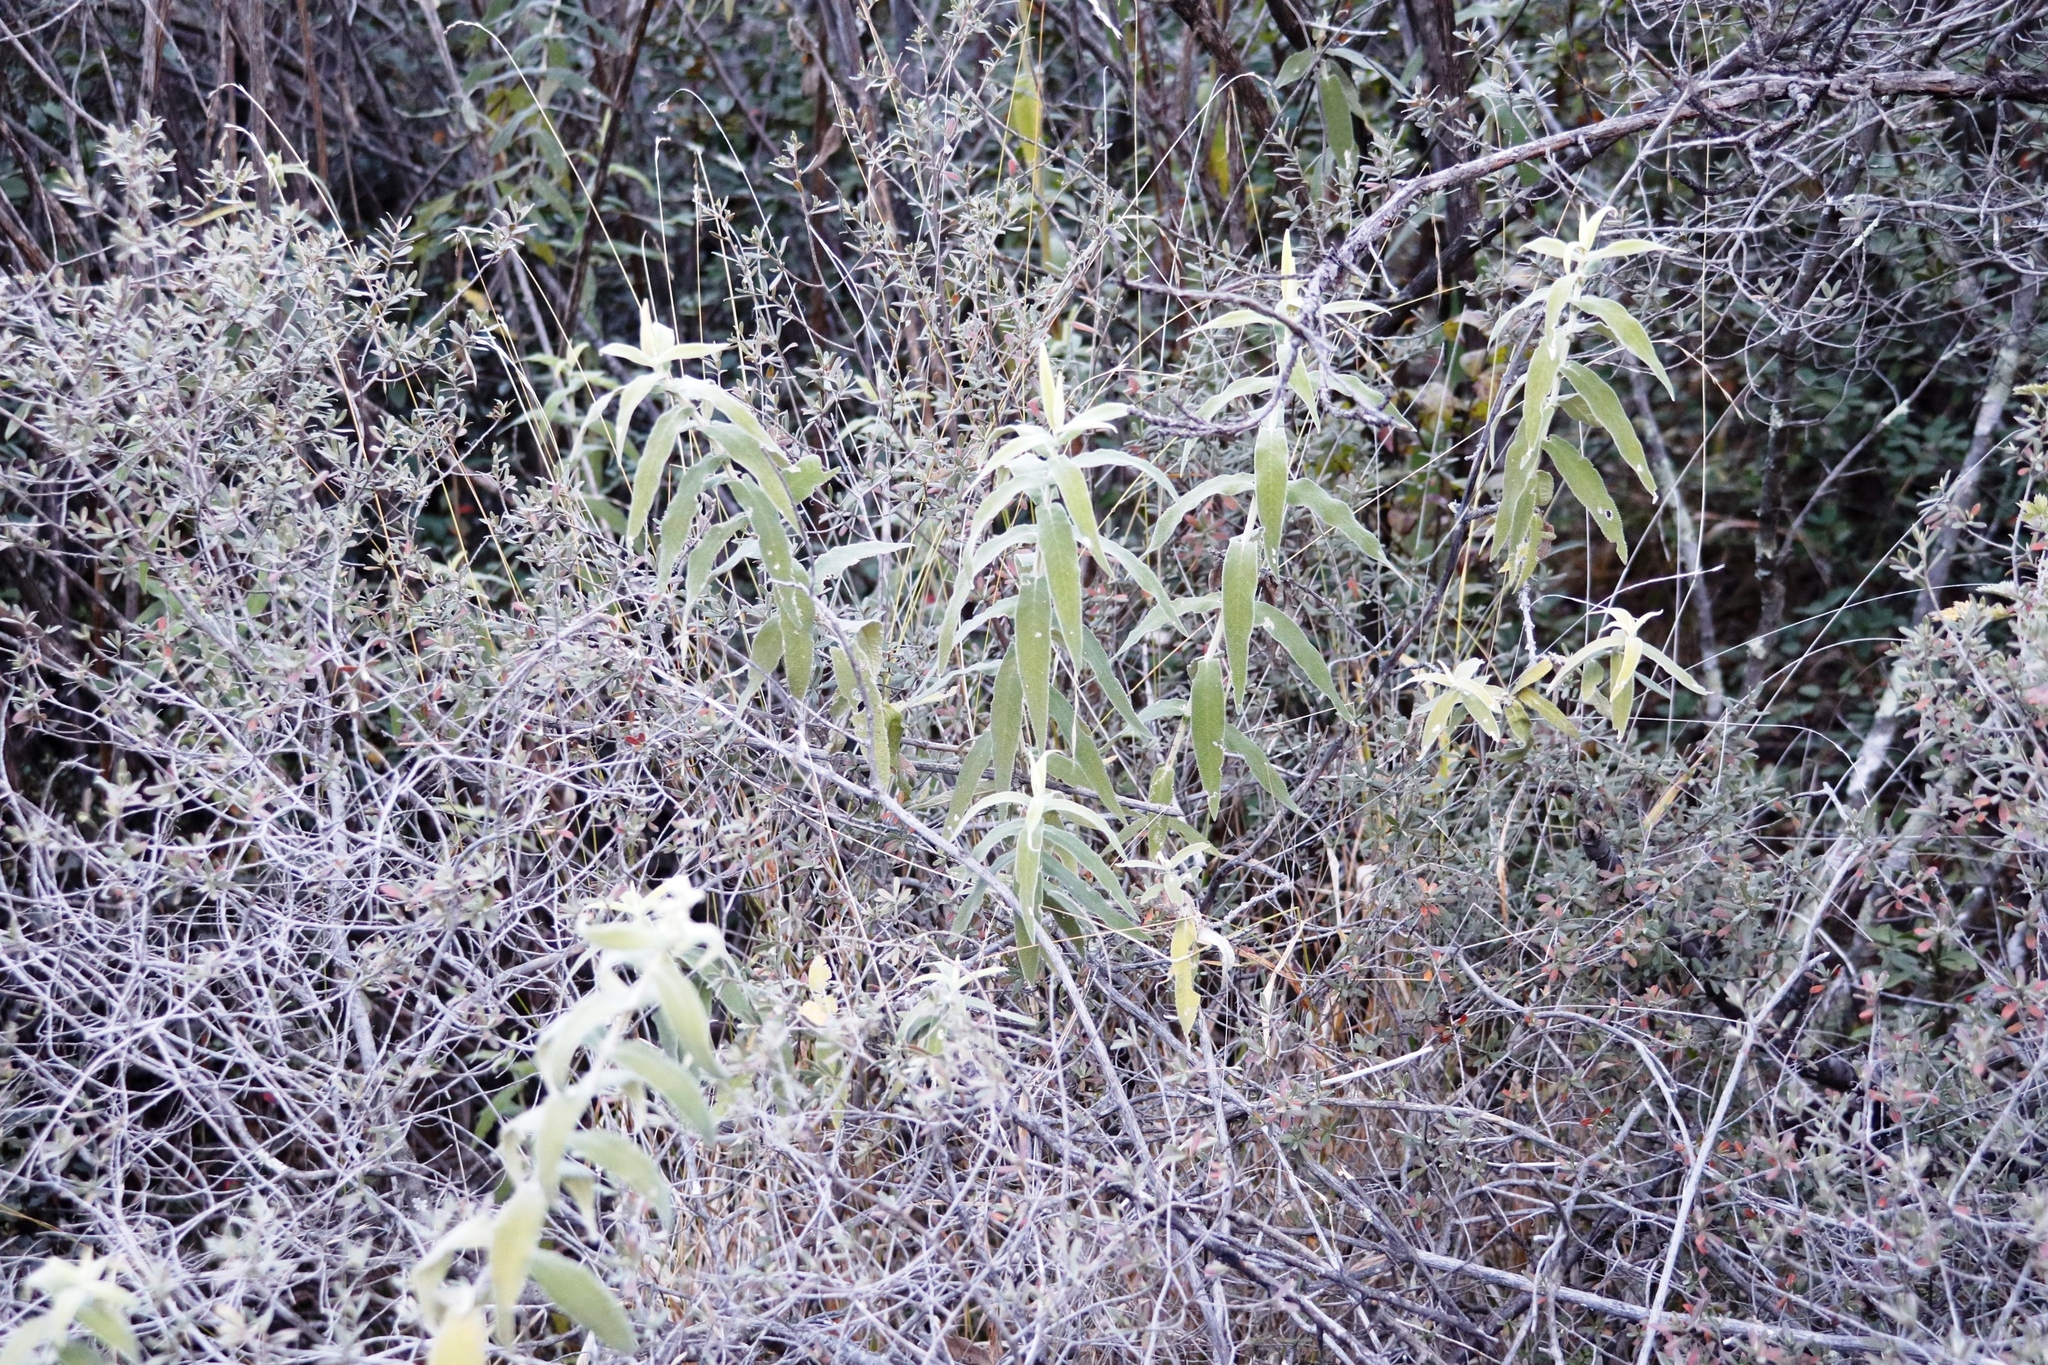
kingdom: Plantae
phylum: Tracheophyta
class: Magnoliopsida
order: Lamiales
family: Scrophulariaceae
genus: Buddleja
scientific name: Buddleja salviifolia
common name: Sagewood
